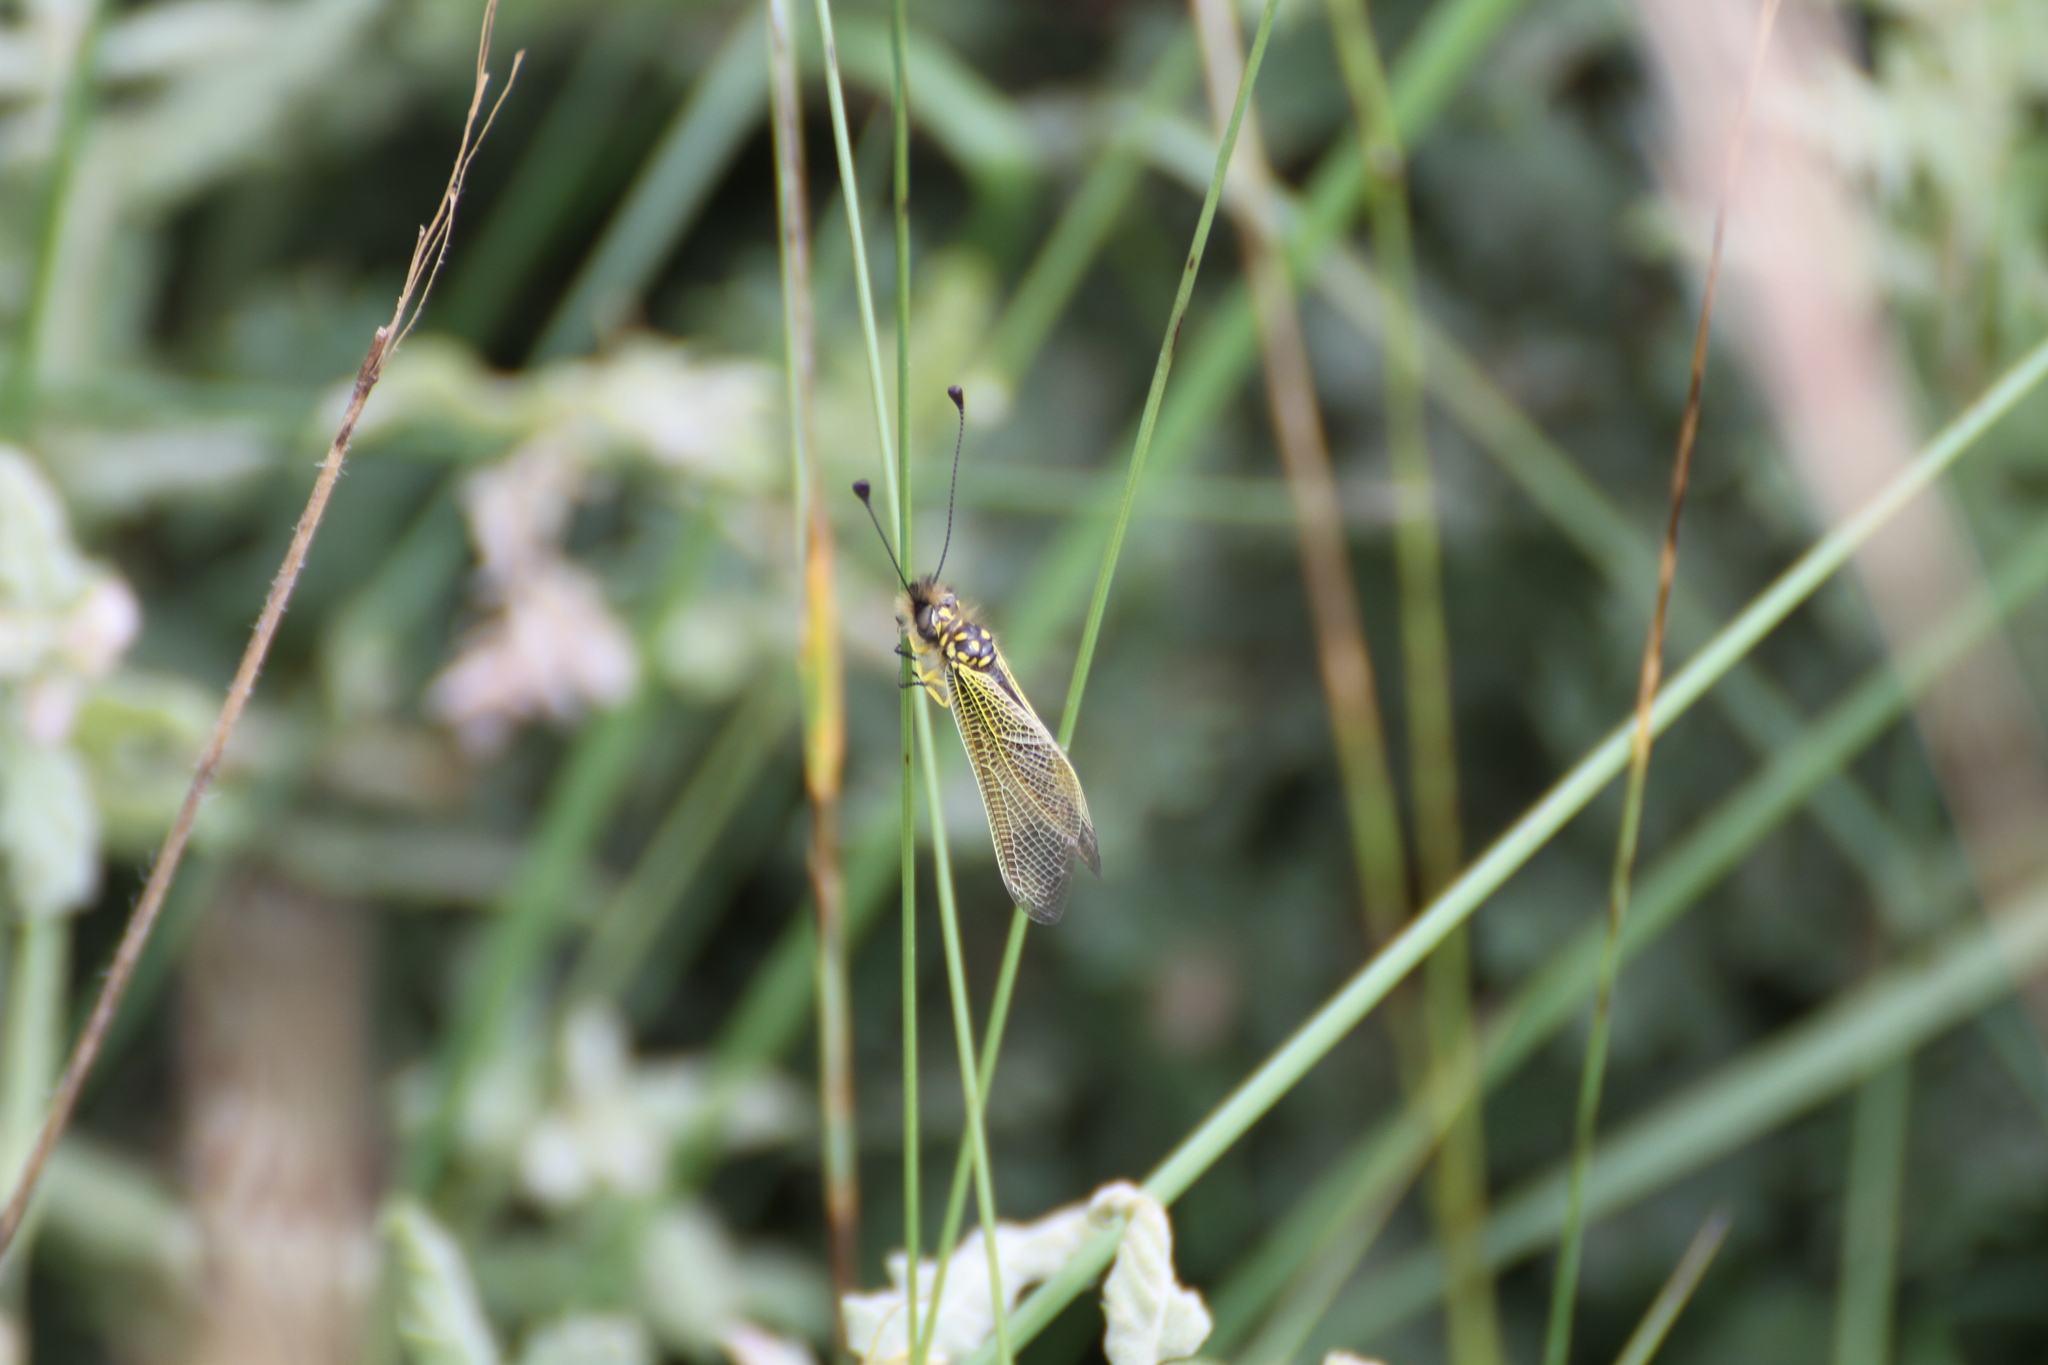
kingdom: Animalia
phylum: Arthropoda
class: Insecta
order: Neuroptera
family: Ascalaphidae
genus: Libelloides
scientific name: Libelloides ictericus
